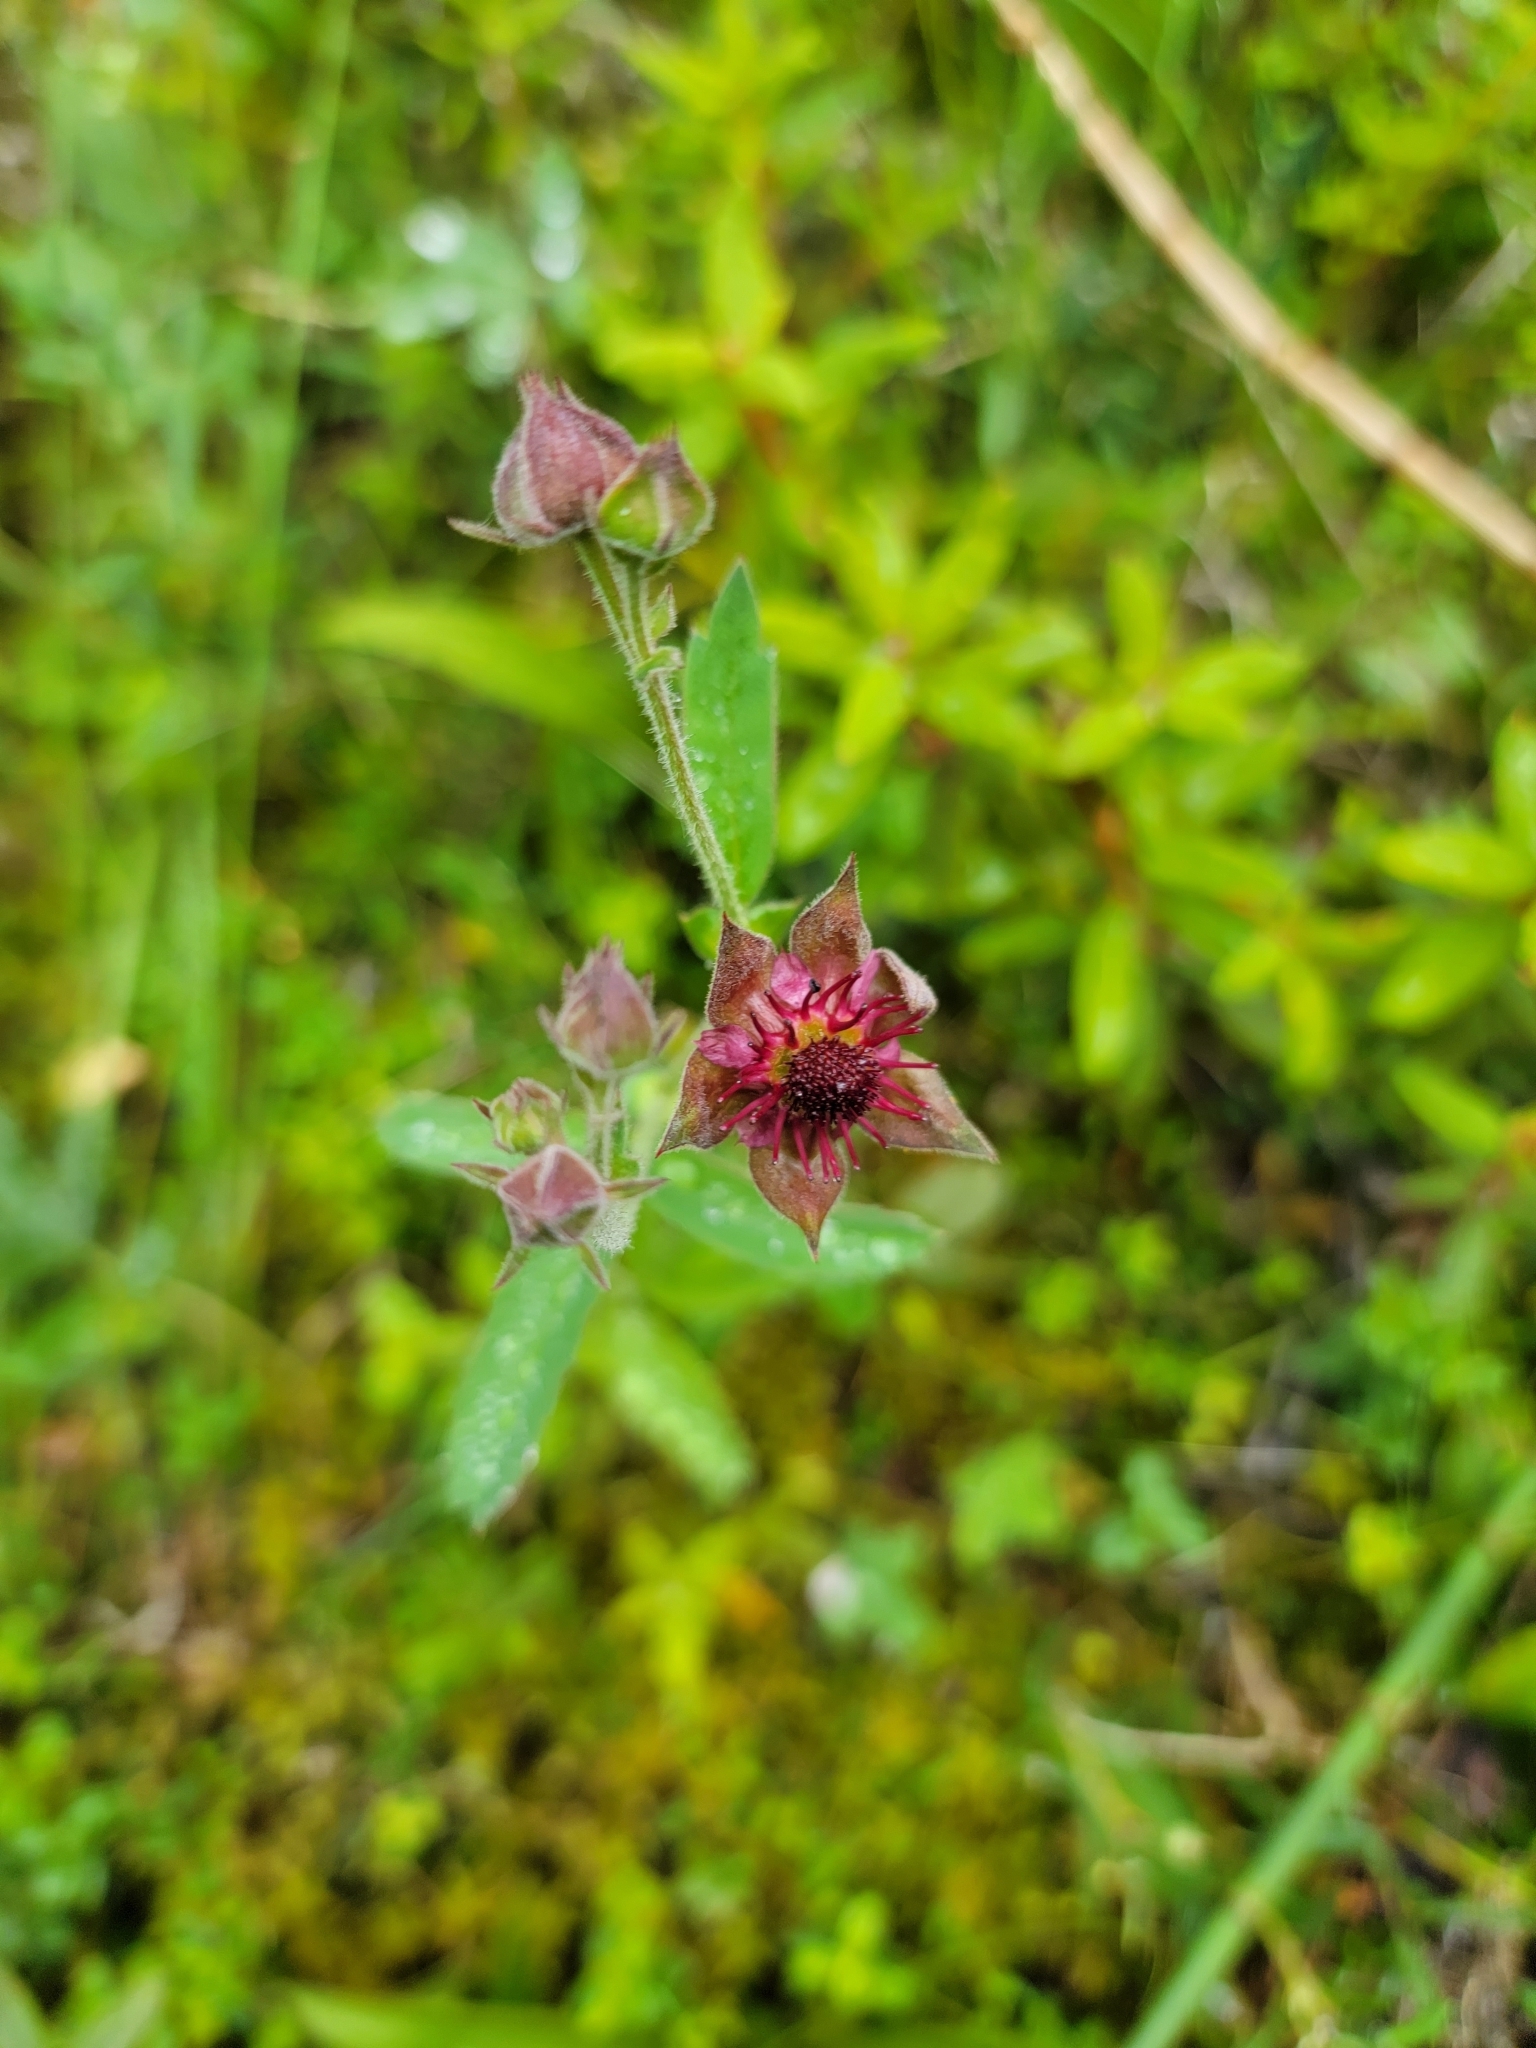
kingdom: Plantae
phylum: Tracheophyta
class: Magnoliopsida
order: Rosales
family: Rosaceae
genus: Comarum
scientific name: Comarum palustre
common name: Marsh cinquefoil
